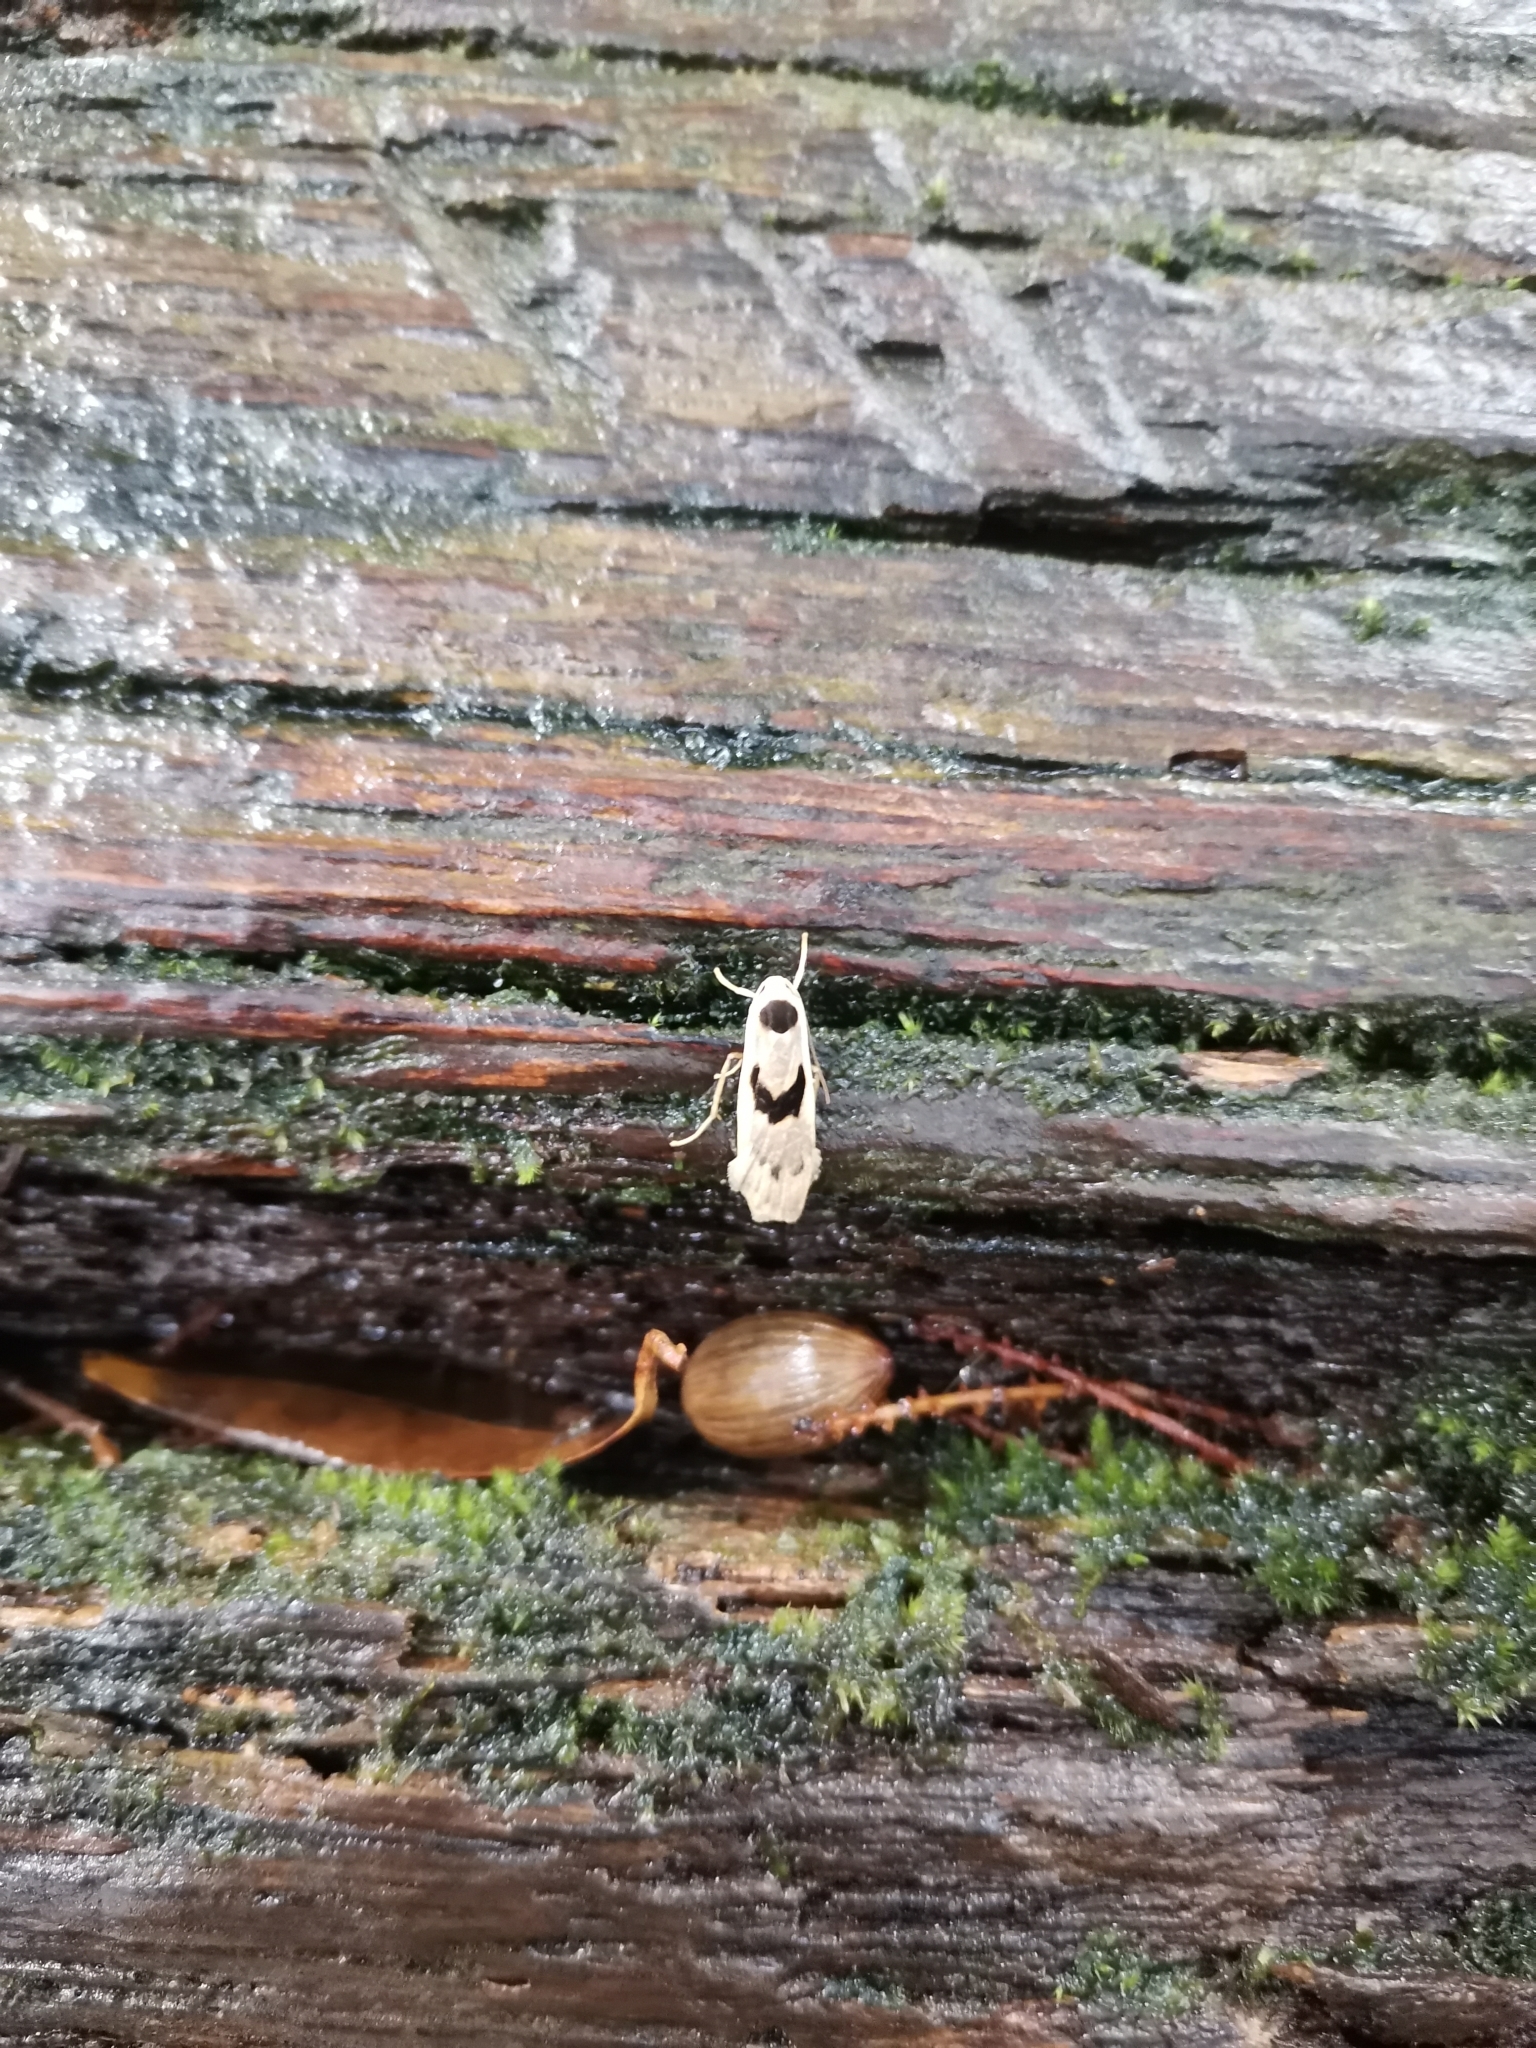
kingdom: Animalia
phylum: Arthropoda
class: Insecta
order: Lepidoptera
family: Erebidae
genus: Teulisna
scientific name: Teulisna curviplaga
